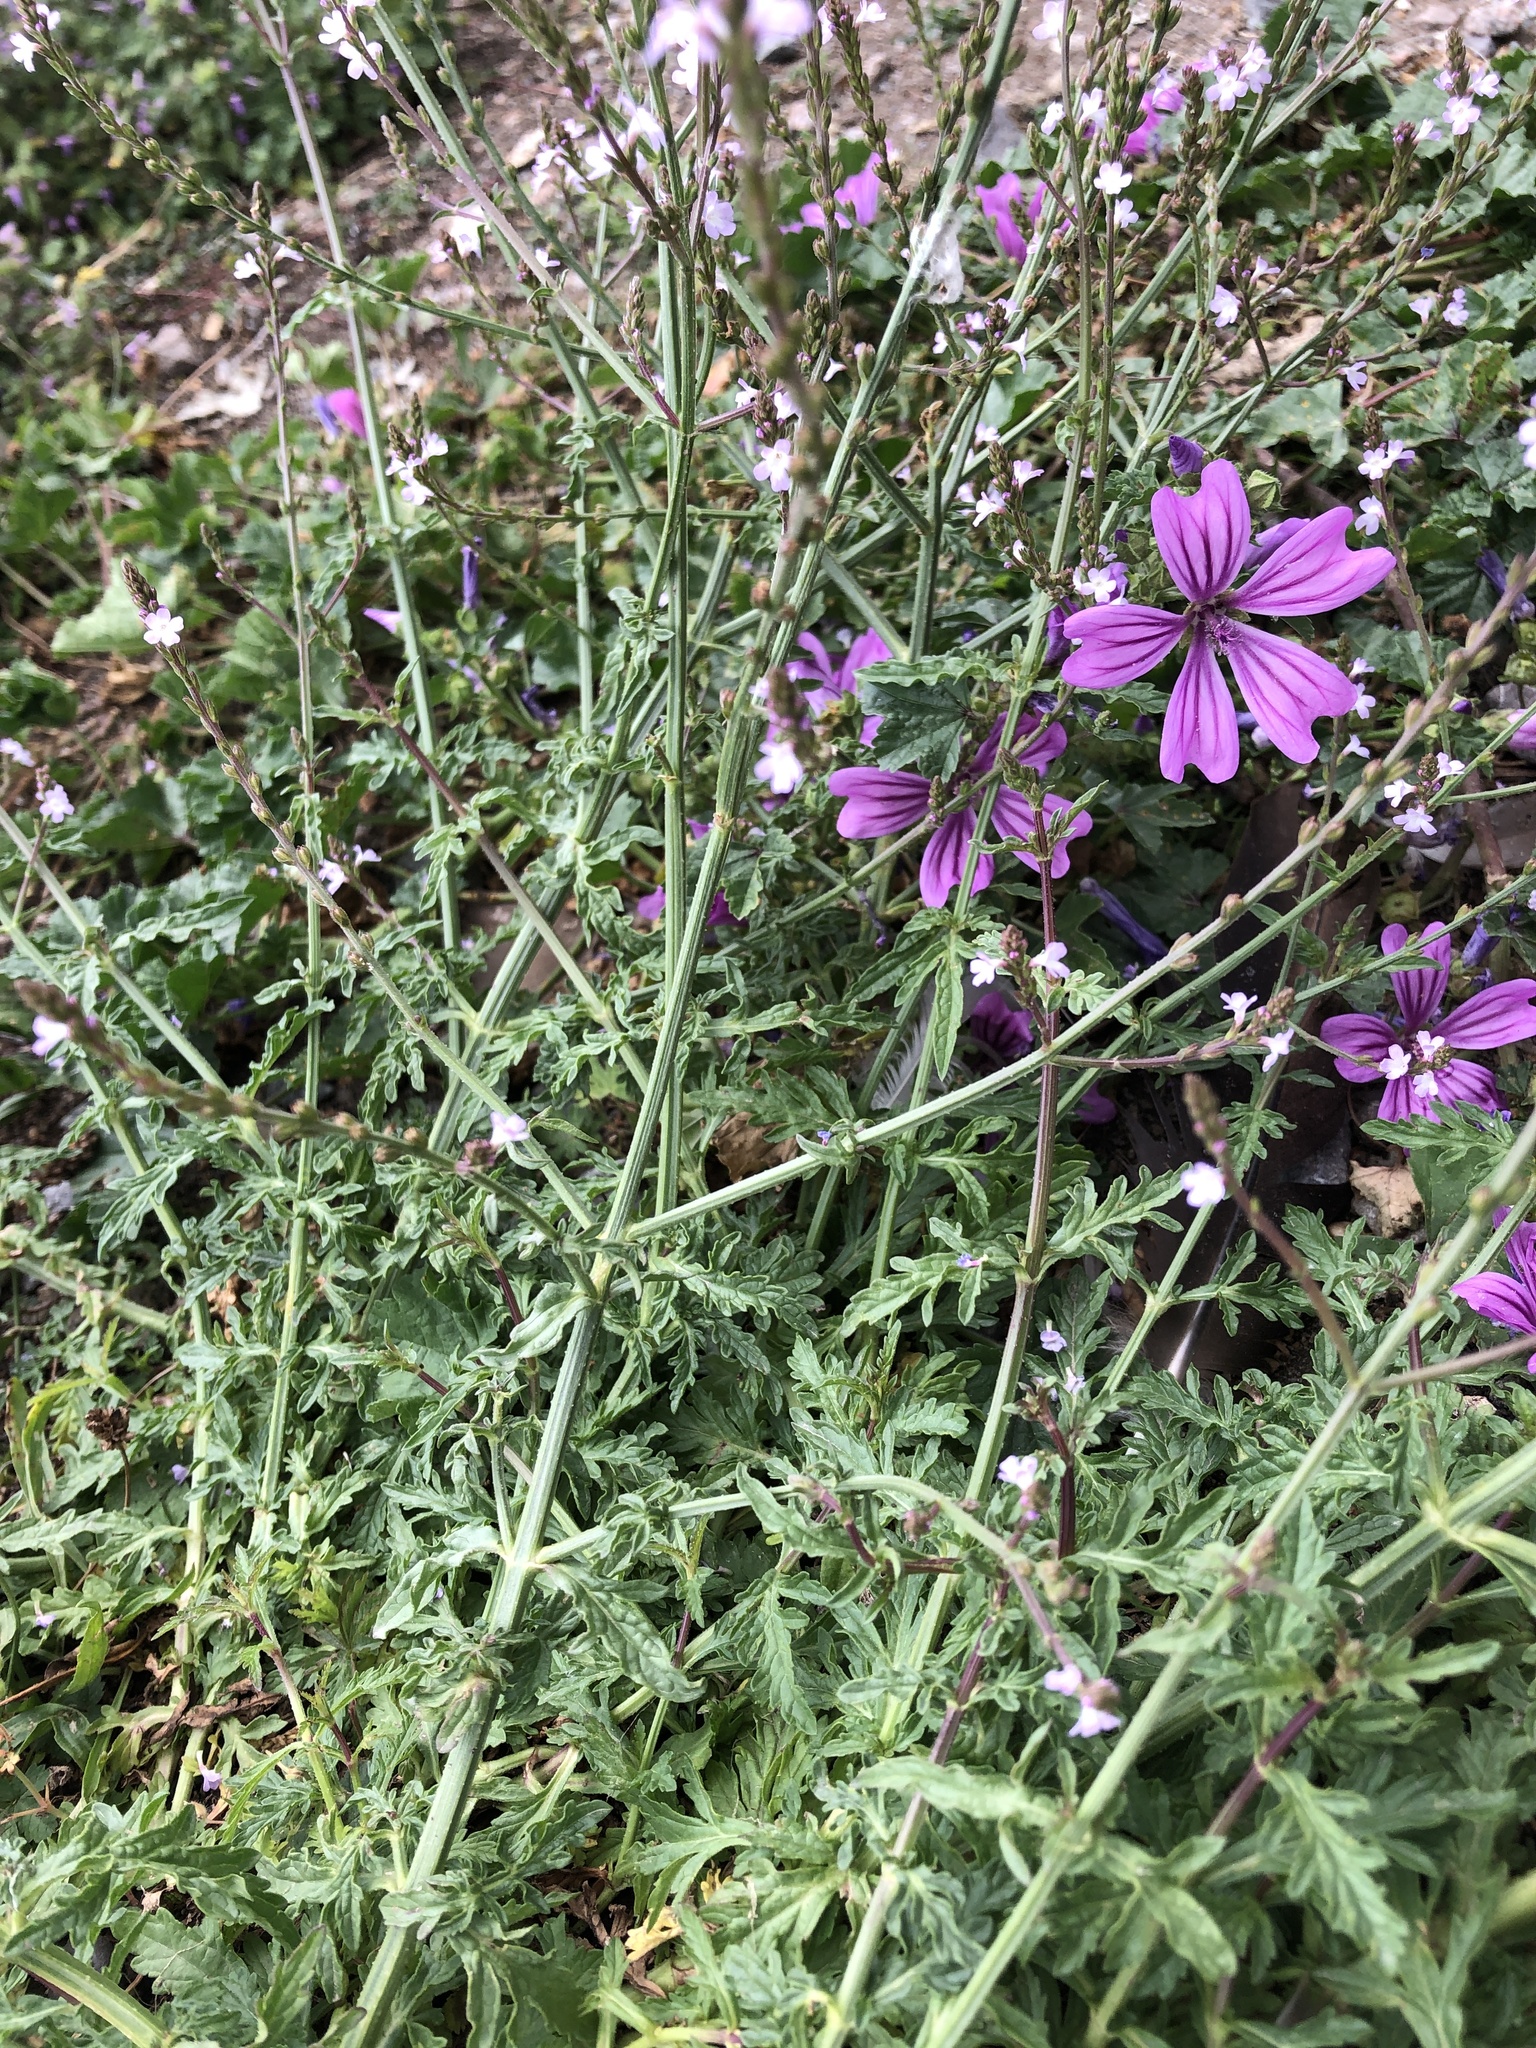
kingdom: Plantae
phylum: Tracheophyta
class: Magnoliopsida
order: Lamiales
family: Verbenaceae
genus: Verbena
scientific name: Verbena officinalis
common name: Vervain
